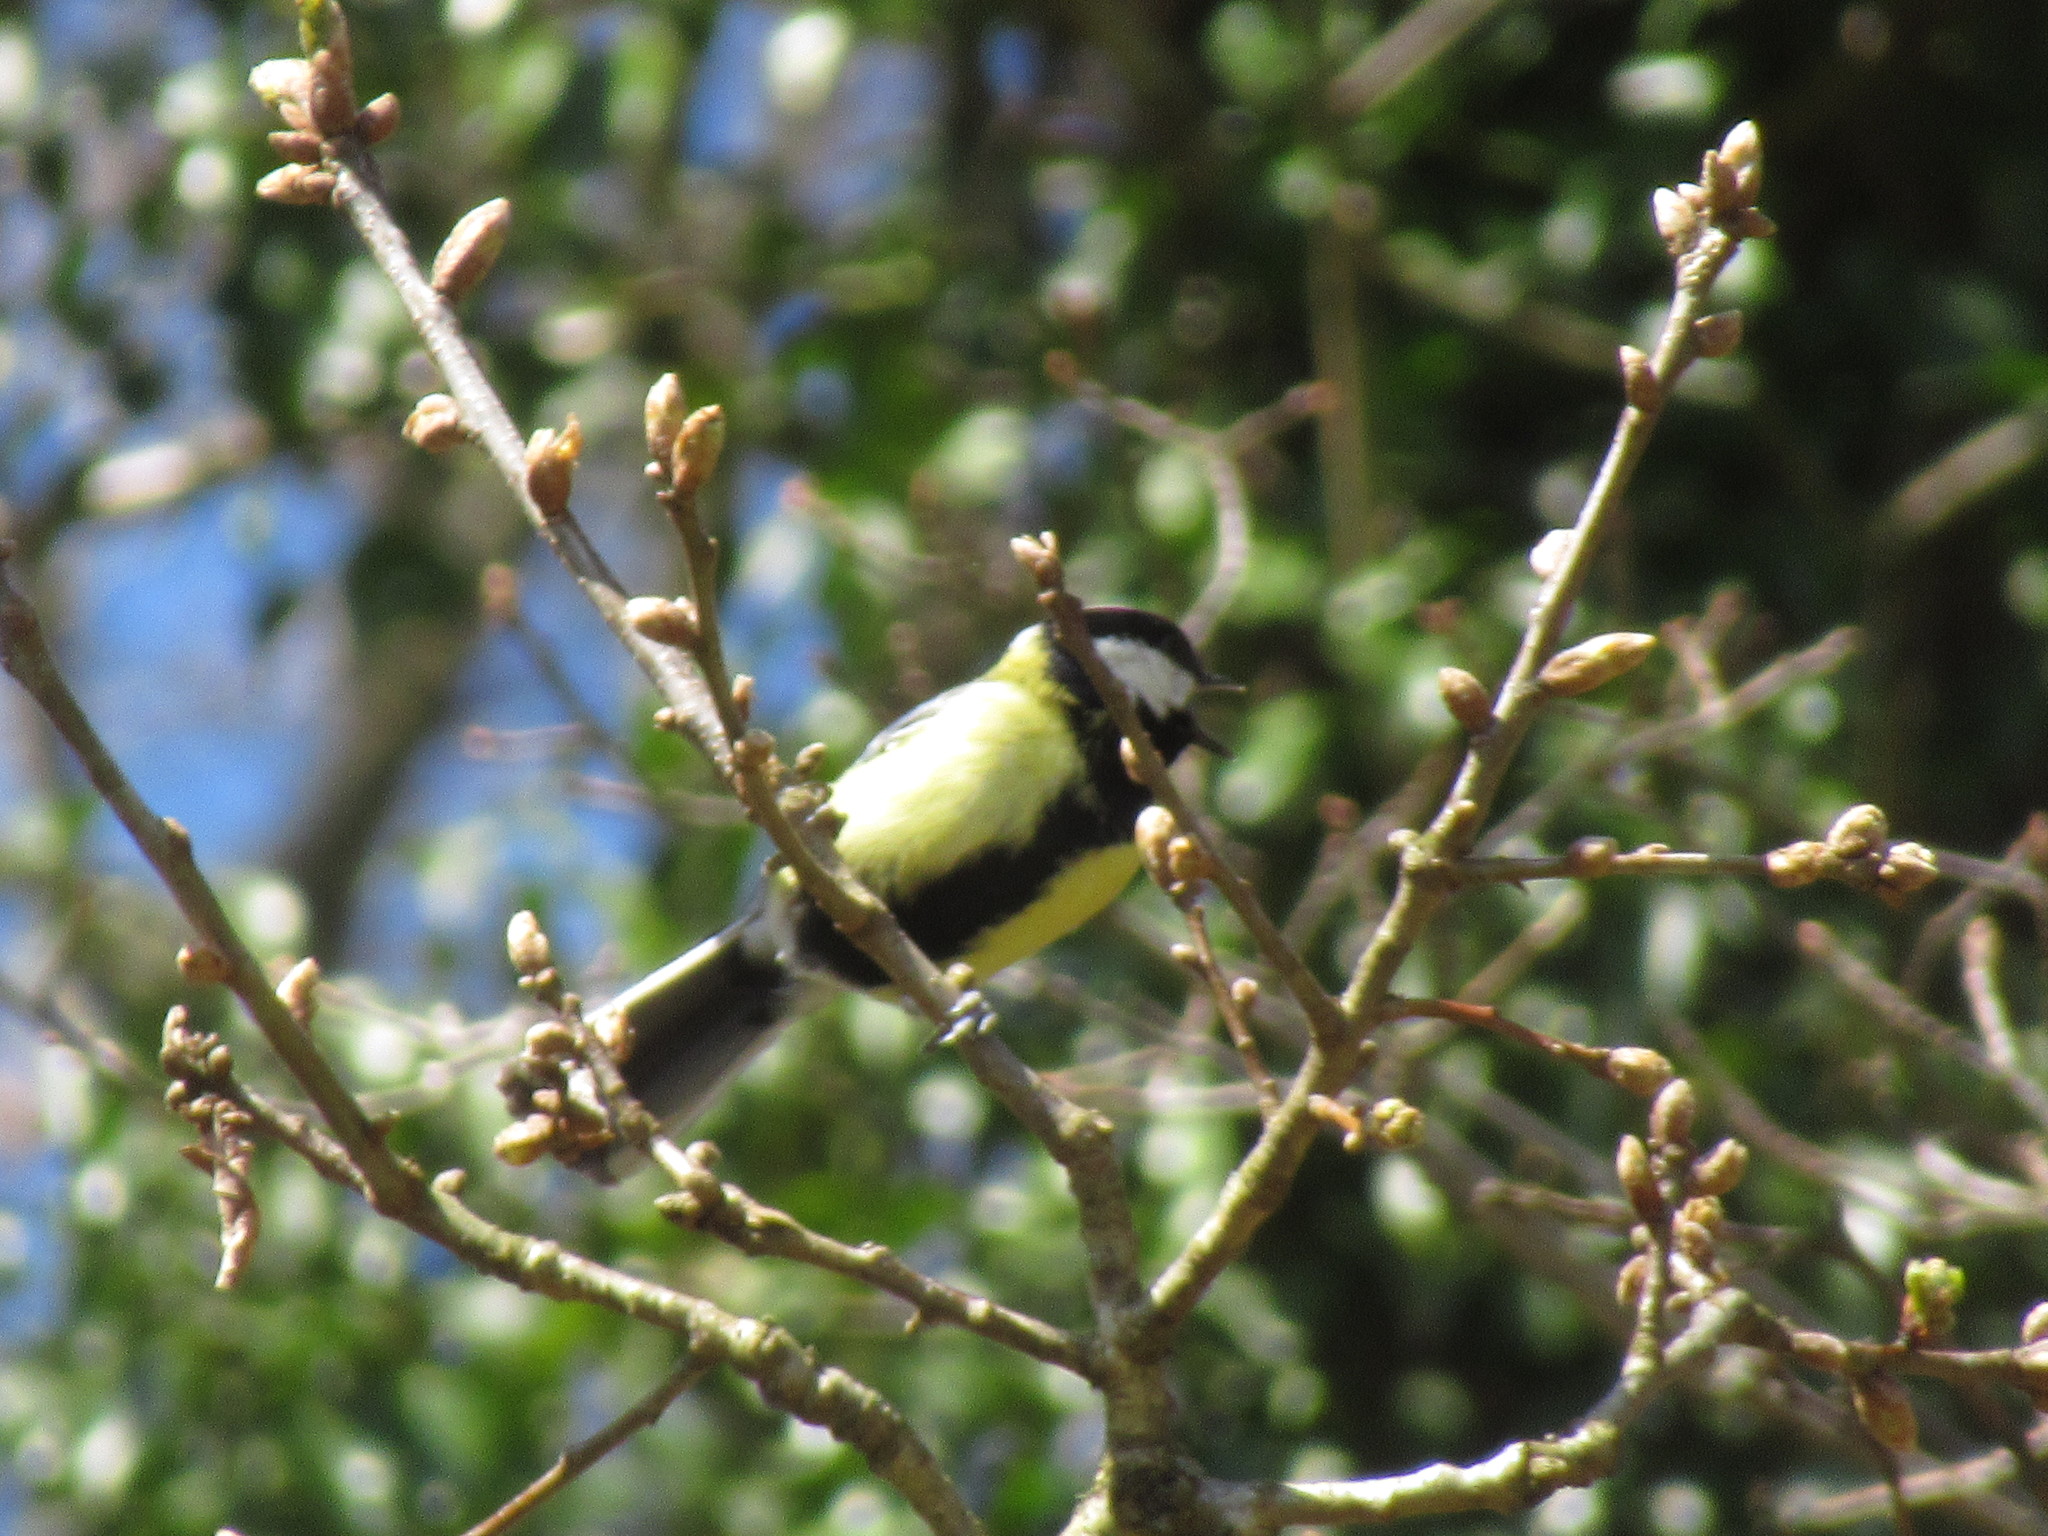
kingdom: Animalia
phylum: Chordata
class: Aves
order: Passeriformes
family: Paridae
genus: Parus
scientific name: Parus major
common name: Great tit
